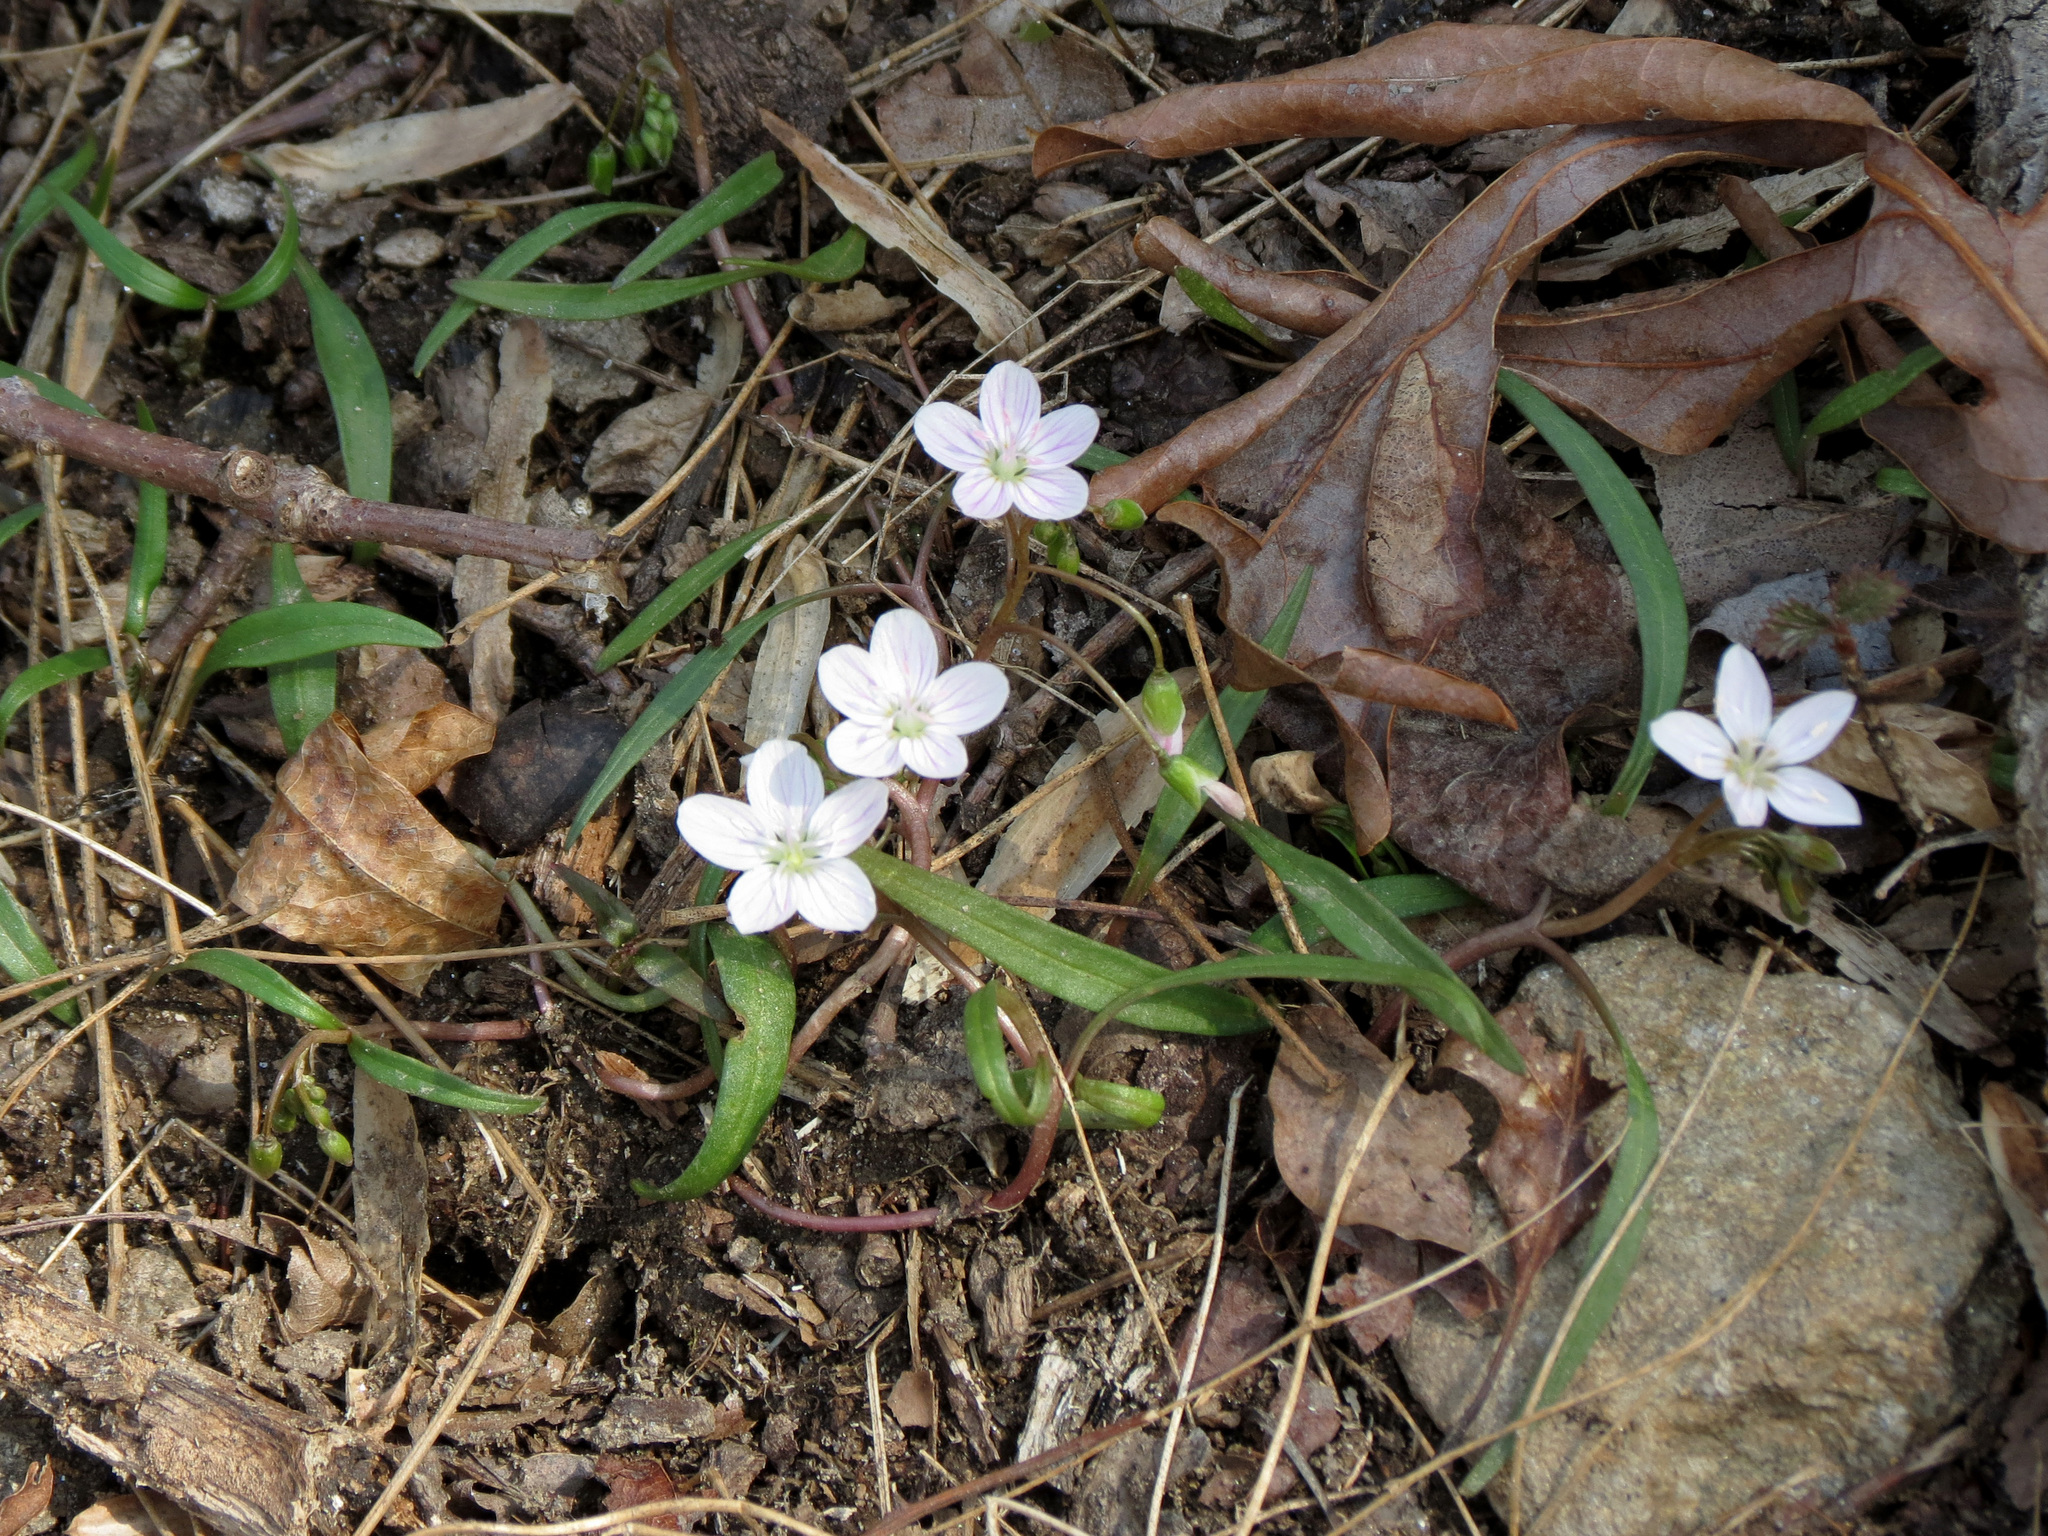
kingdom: Plantae
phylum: Tracheophyta
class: Magnoliopsida
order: Caryophyllales
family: Montiaceae
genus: Claytonia
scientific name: Claytonia virginica
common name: Virginia springbeauty
